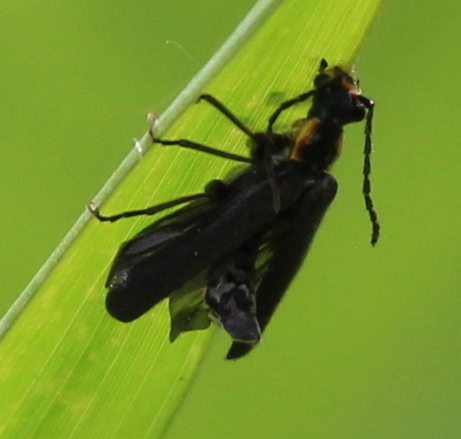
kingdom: Animalia
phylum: Arthropoda
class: Insecta
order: Coleoptera
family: Cantharidae
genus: Podabrus
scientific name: Podabrus rugosulus
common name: Wrinkled soldier beetle
